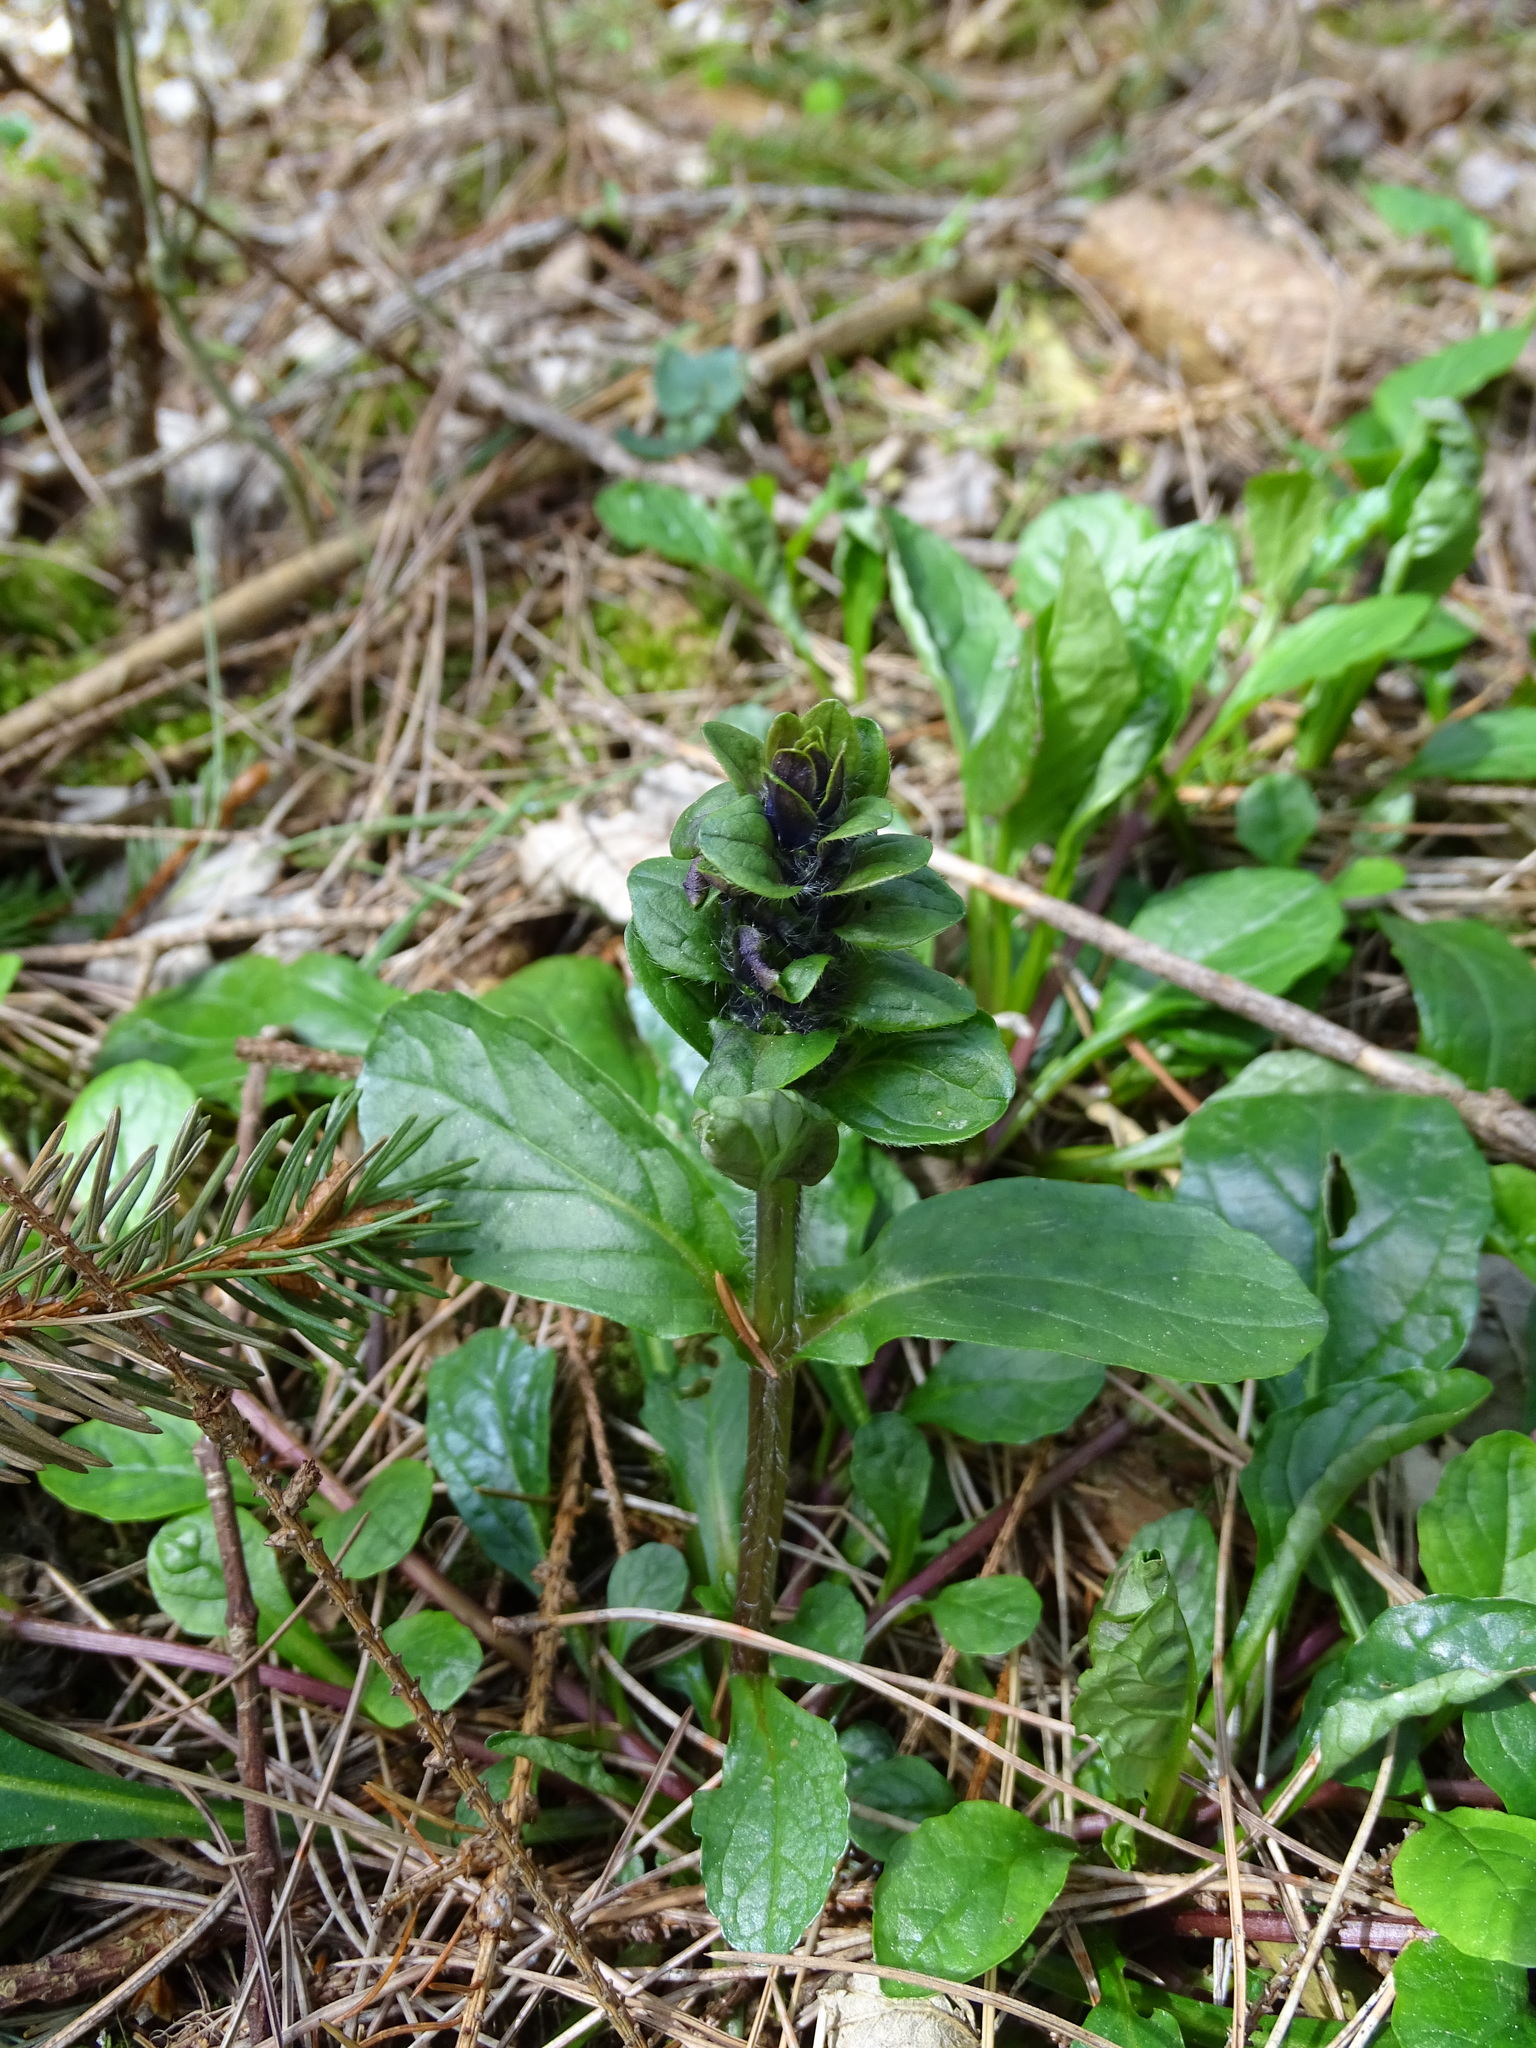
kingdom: Plantae
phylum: Tracheophyta
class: Magnoliopsida
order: Lamiales
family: Lamiaceae
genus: Ajuga
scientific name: Ajuga reptans
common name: Bugle
